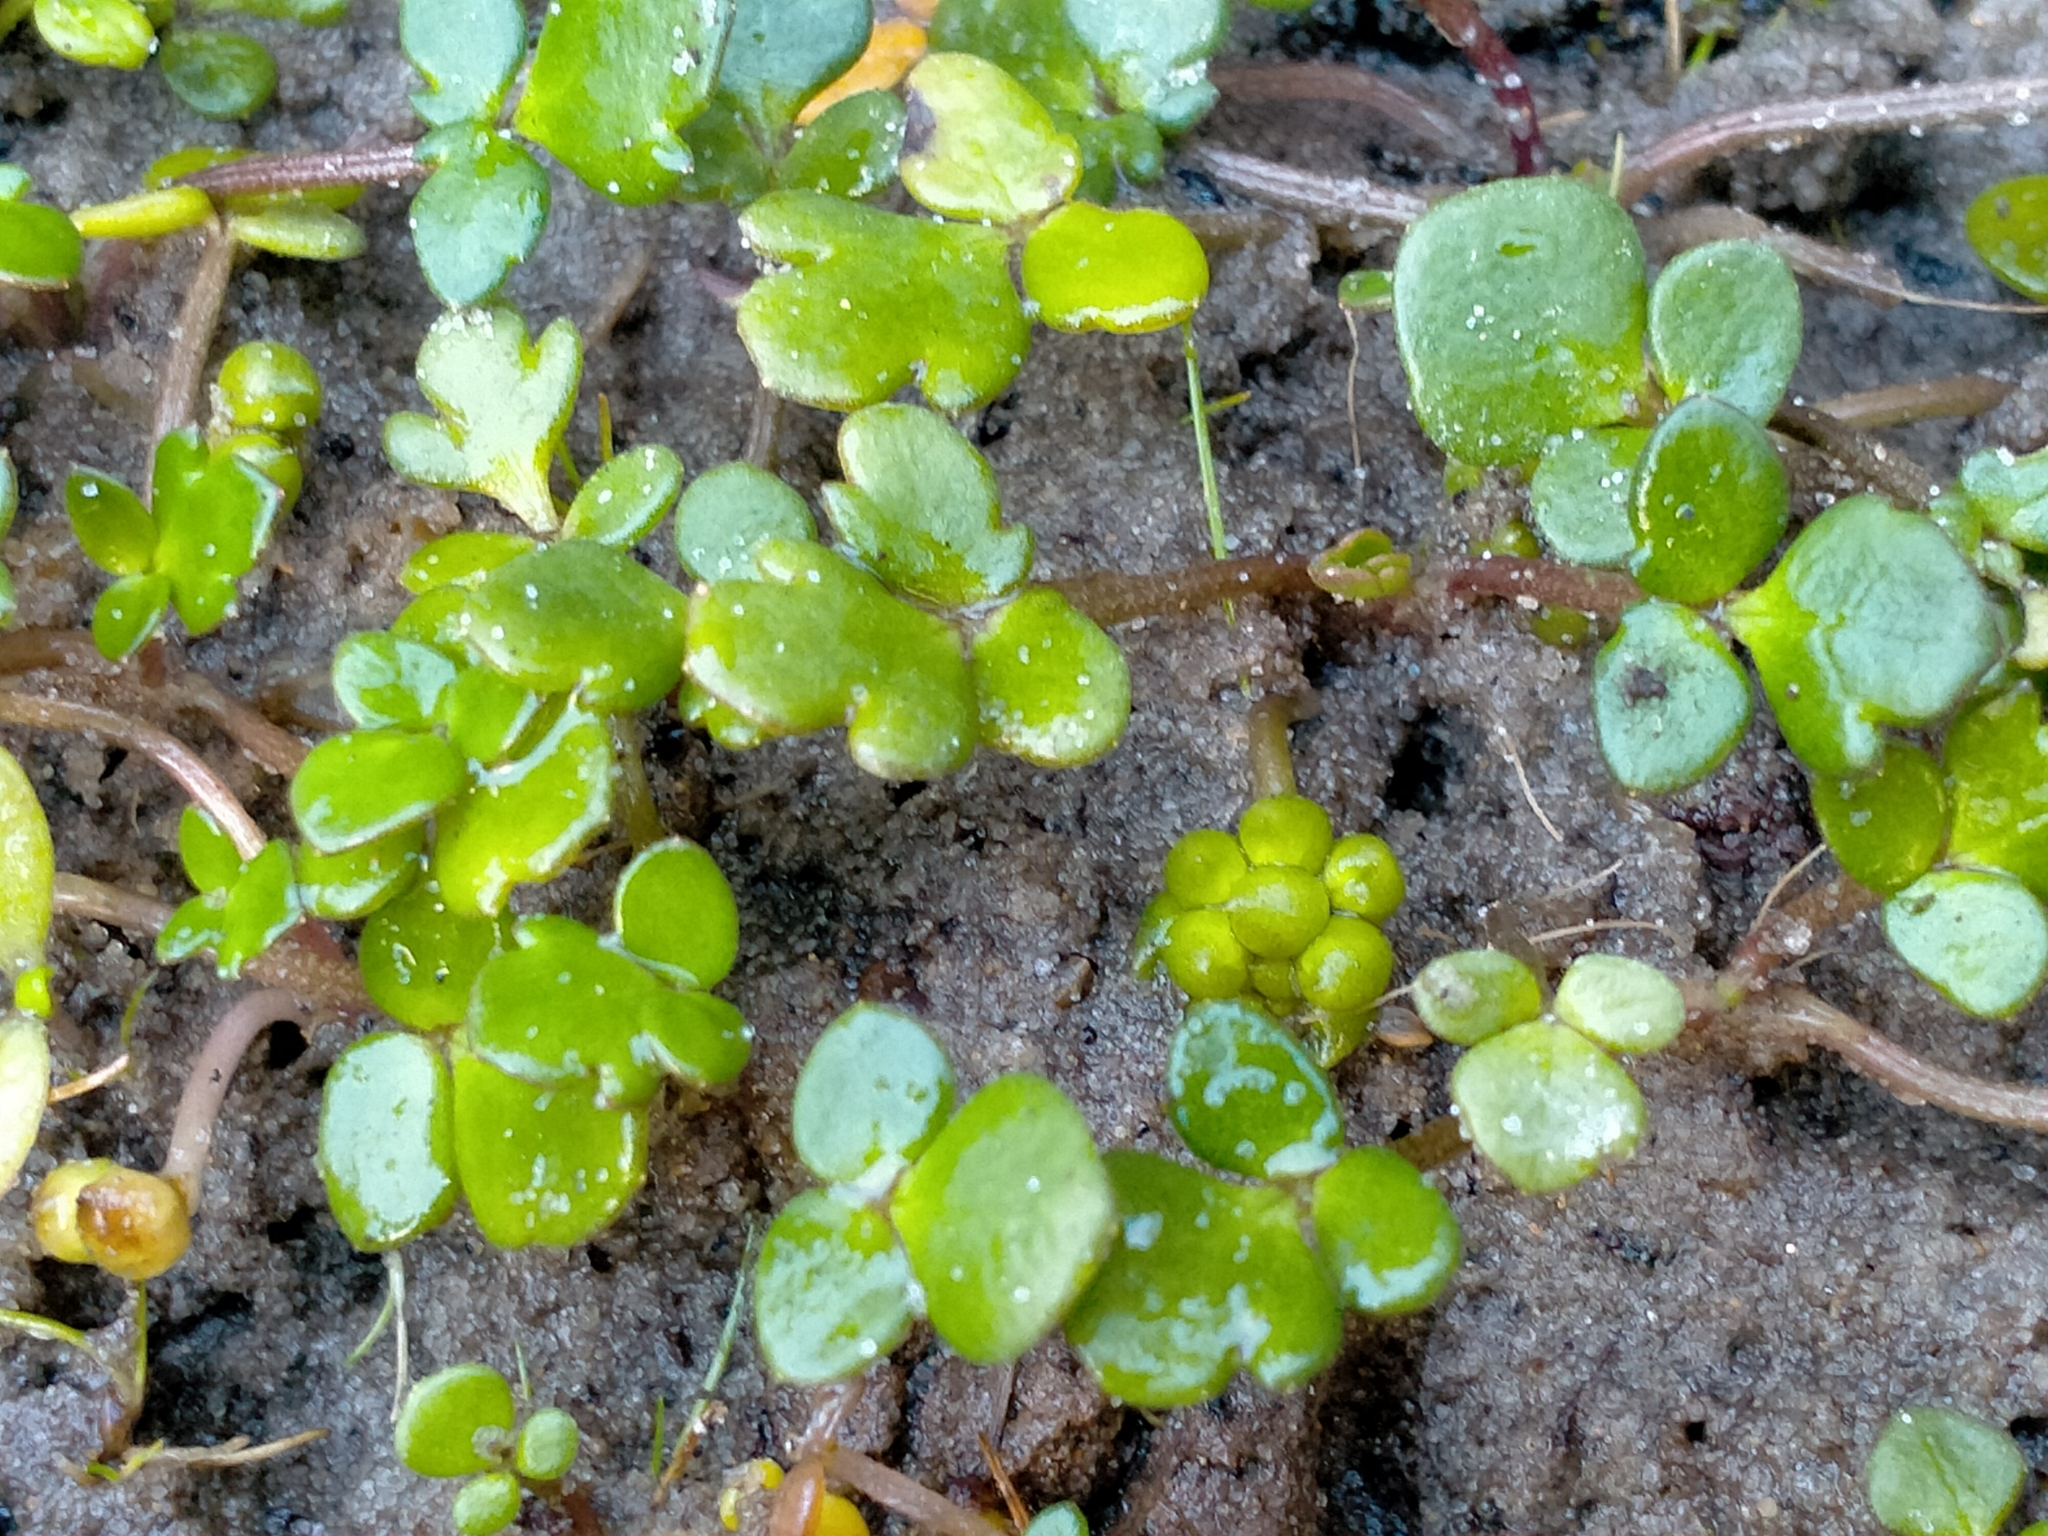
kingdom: Plantae
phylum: Tracheophyta
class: Magnoliopsida
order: Ranunculales
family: Ranunculaceae
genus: Ranunculus
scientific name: Ranunculus acaulis
